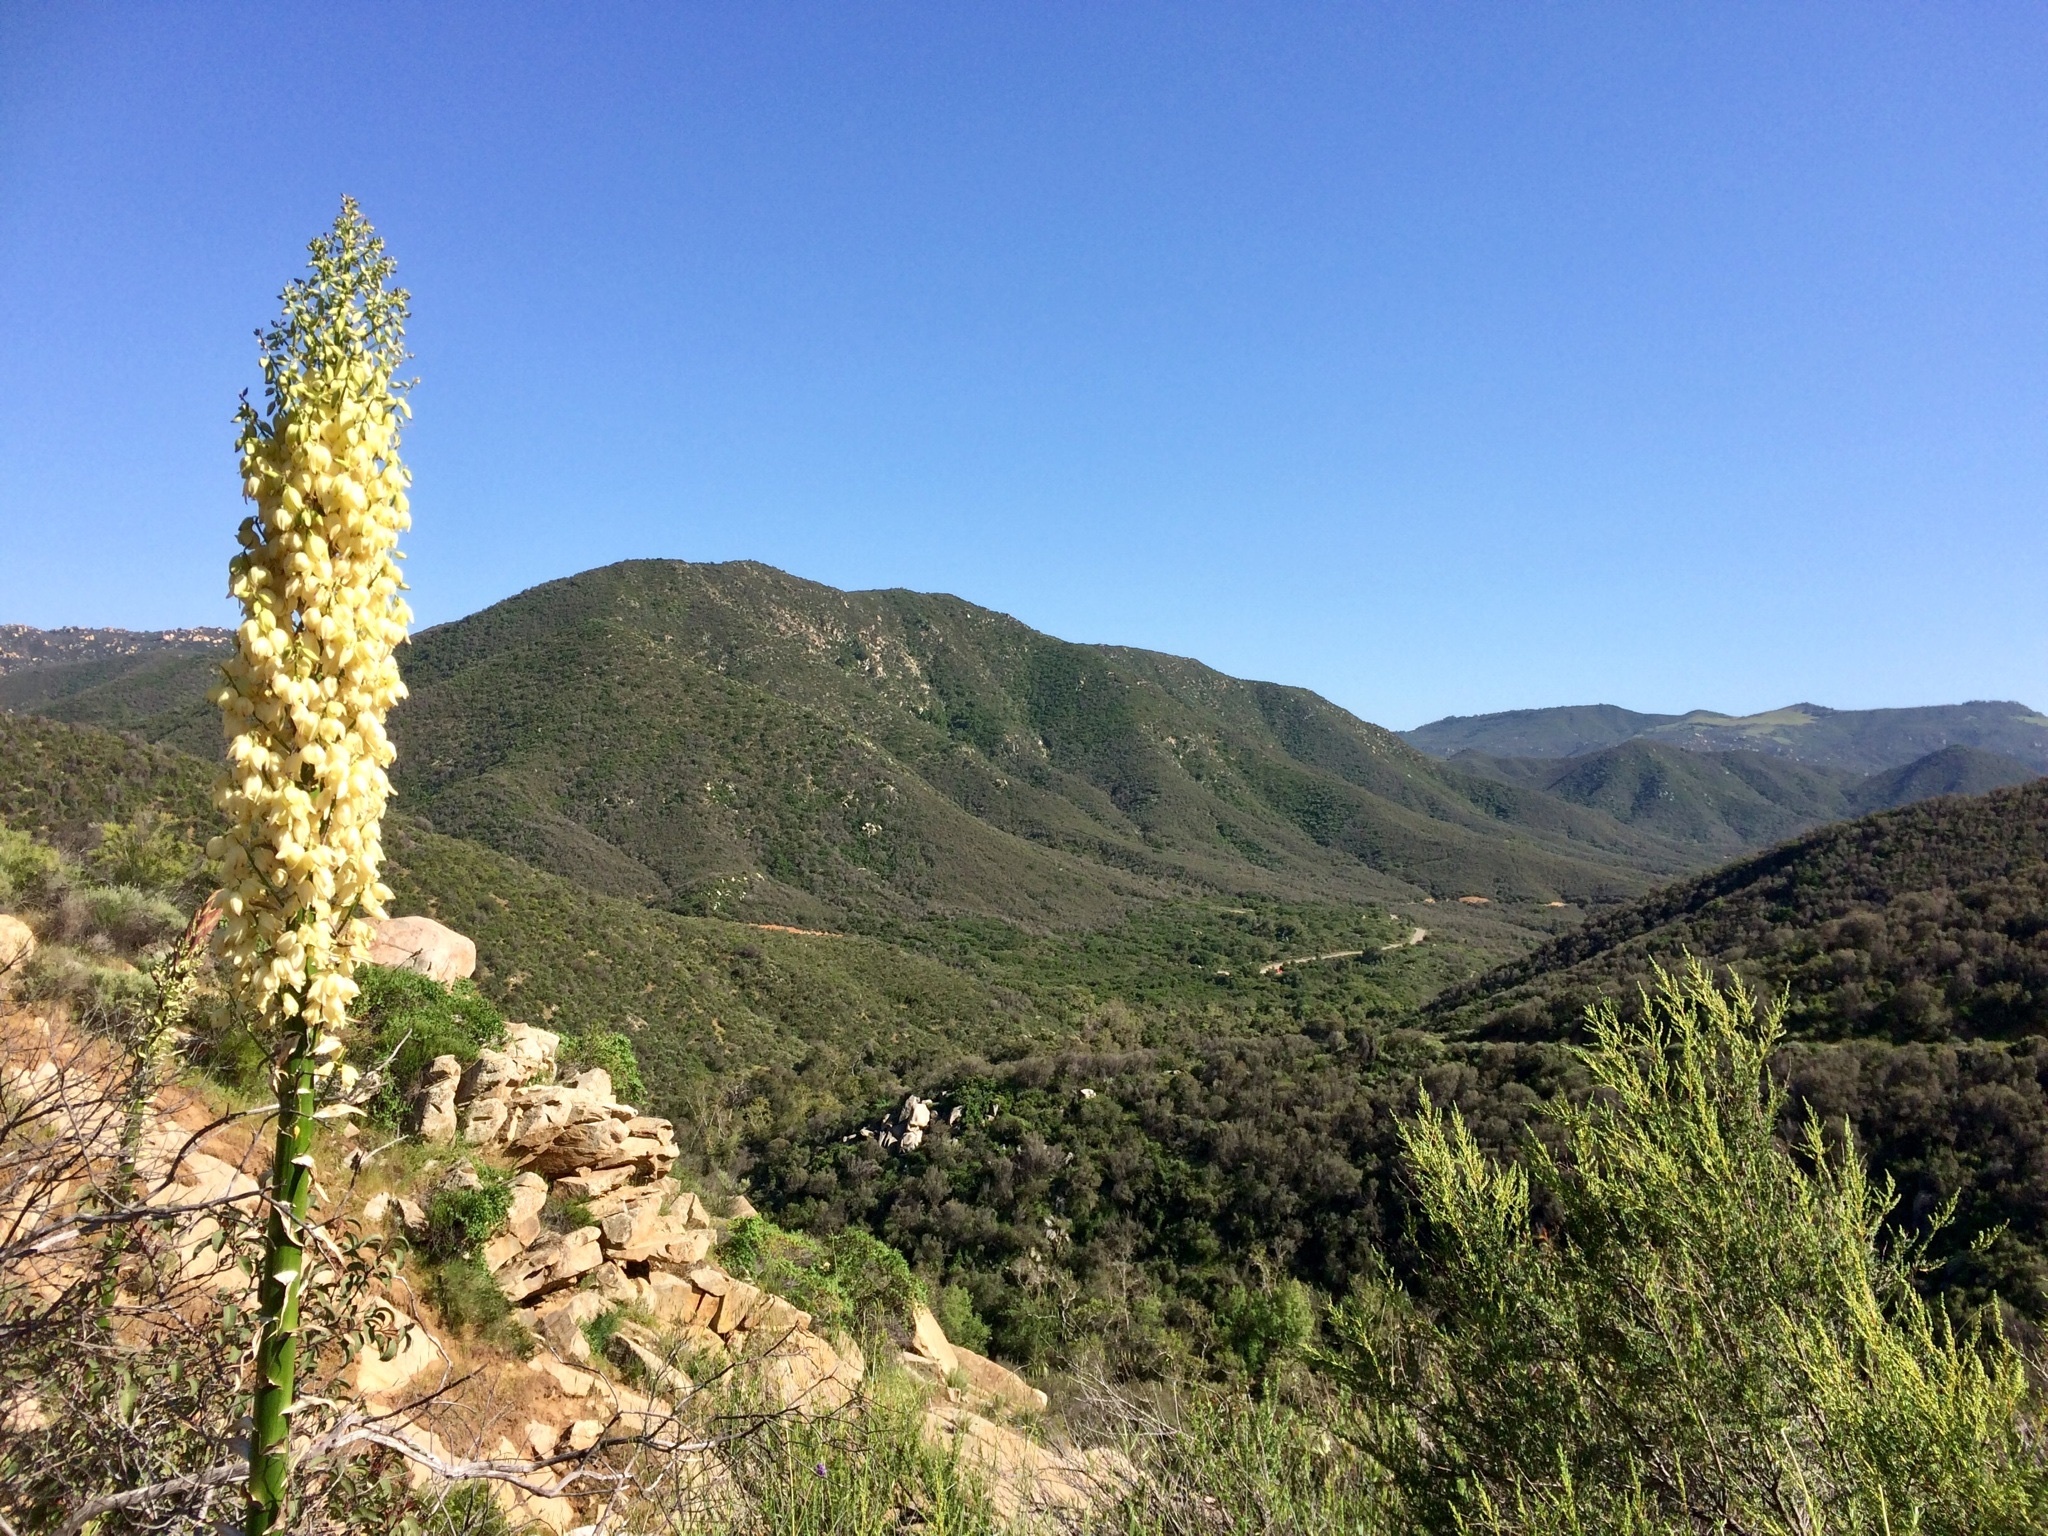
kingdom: Plantae
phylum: Tracheophyta
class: Liliopsida
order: Asparagales
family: Asparagaceae
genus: Hesperoyucca
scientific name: Hesperoyucca whipplei
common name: Our lord's-candle
